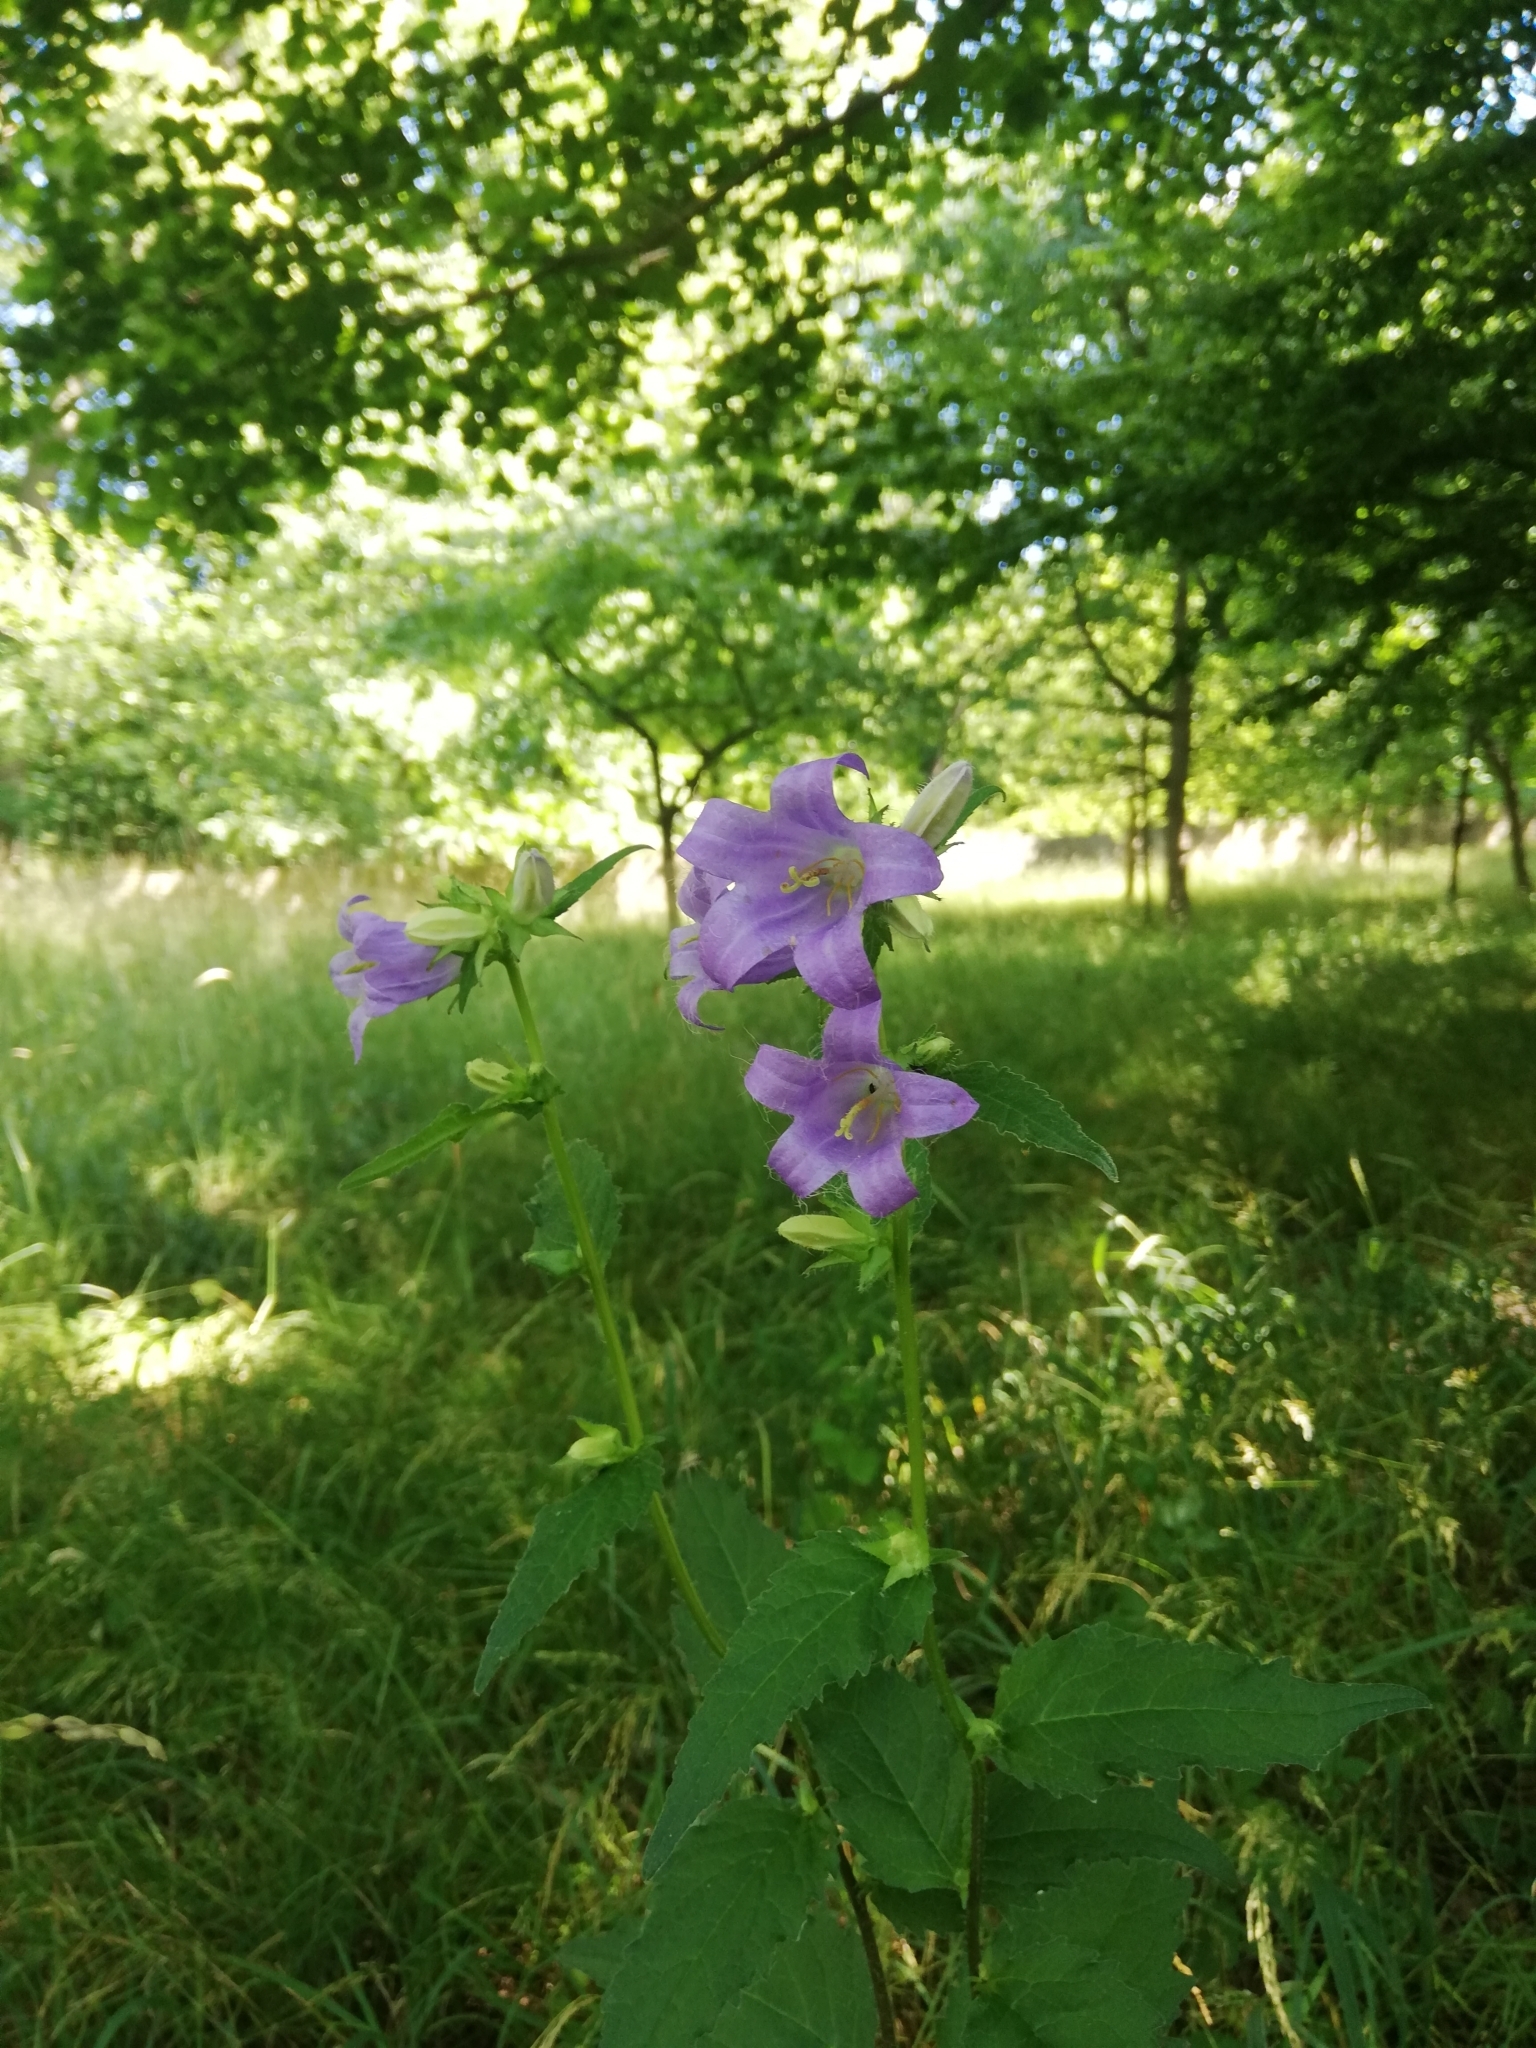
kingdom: Plantae
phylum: Tracheophyta
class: Magnoliopsida
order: Asterales
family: Campanulaceae
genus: Campanula
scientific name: Campanula trachelium
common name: Nettle-leaved bellflower
